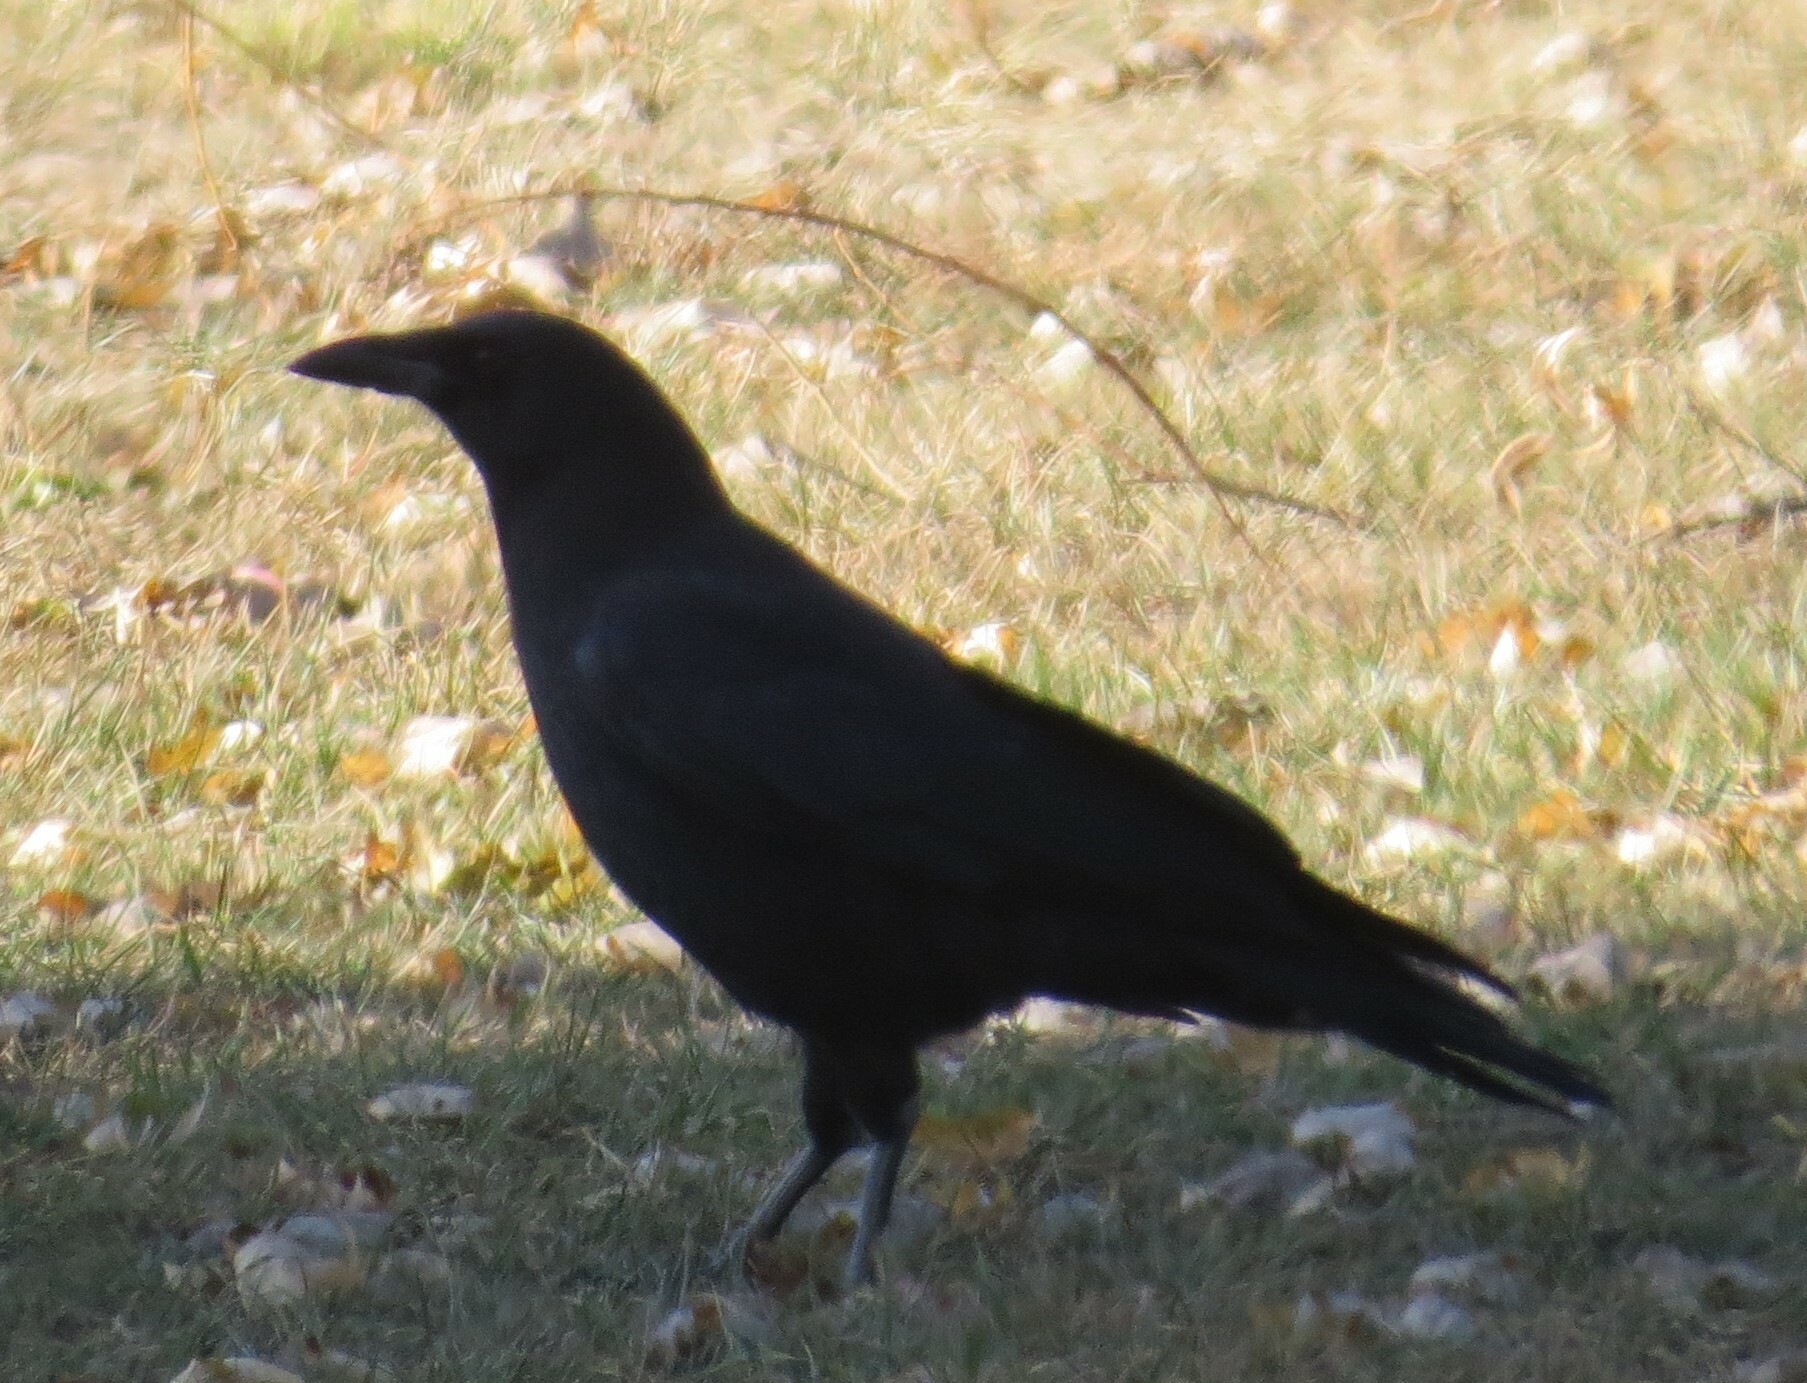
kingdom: Animalia
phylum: Chordata
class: Aves
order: Passeriformes
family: Corvidae
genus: Corvus
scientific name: Corvus brachyrhynchos
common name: American crow
